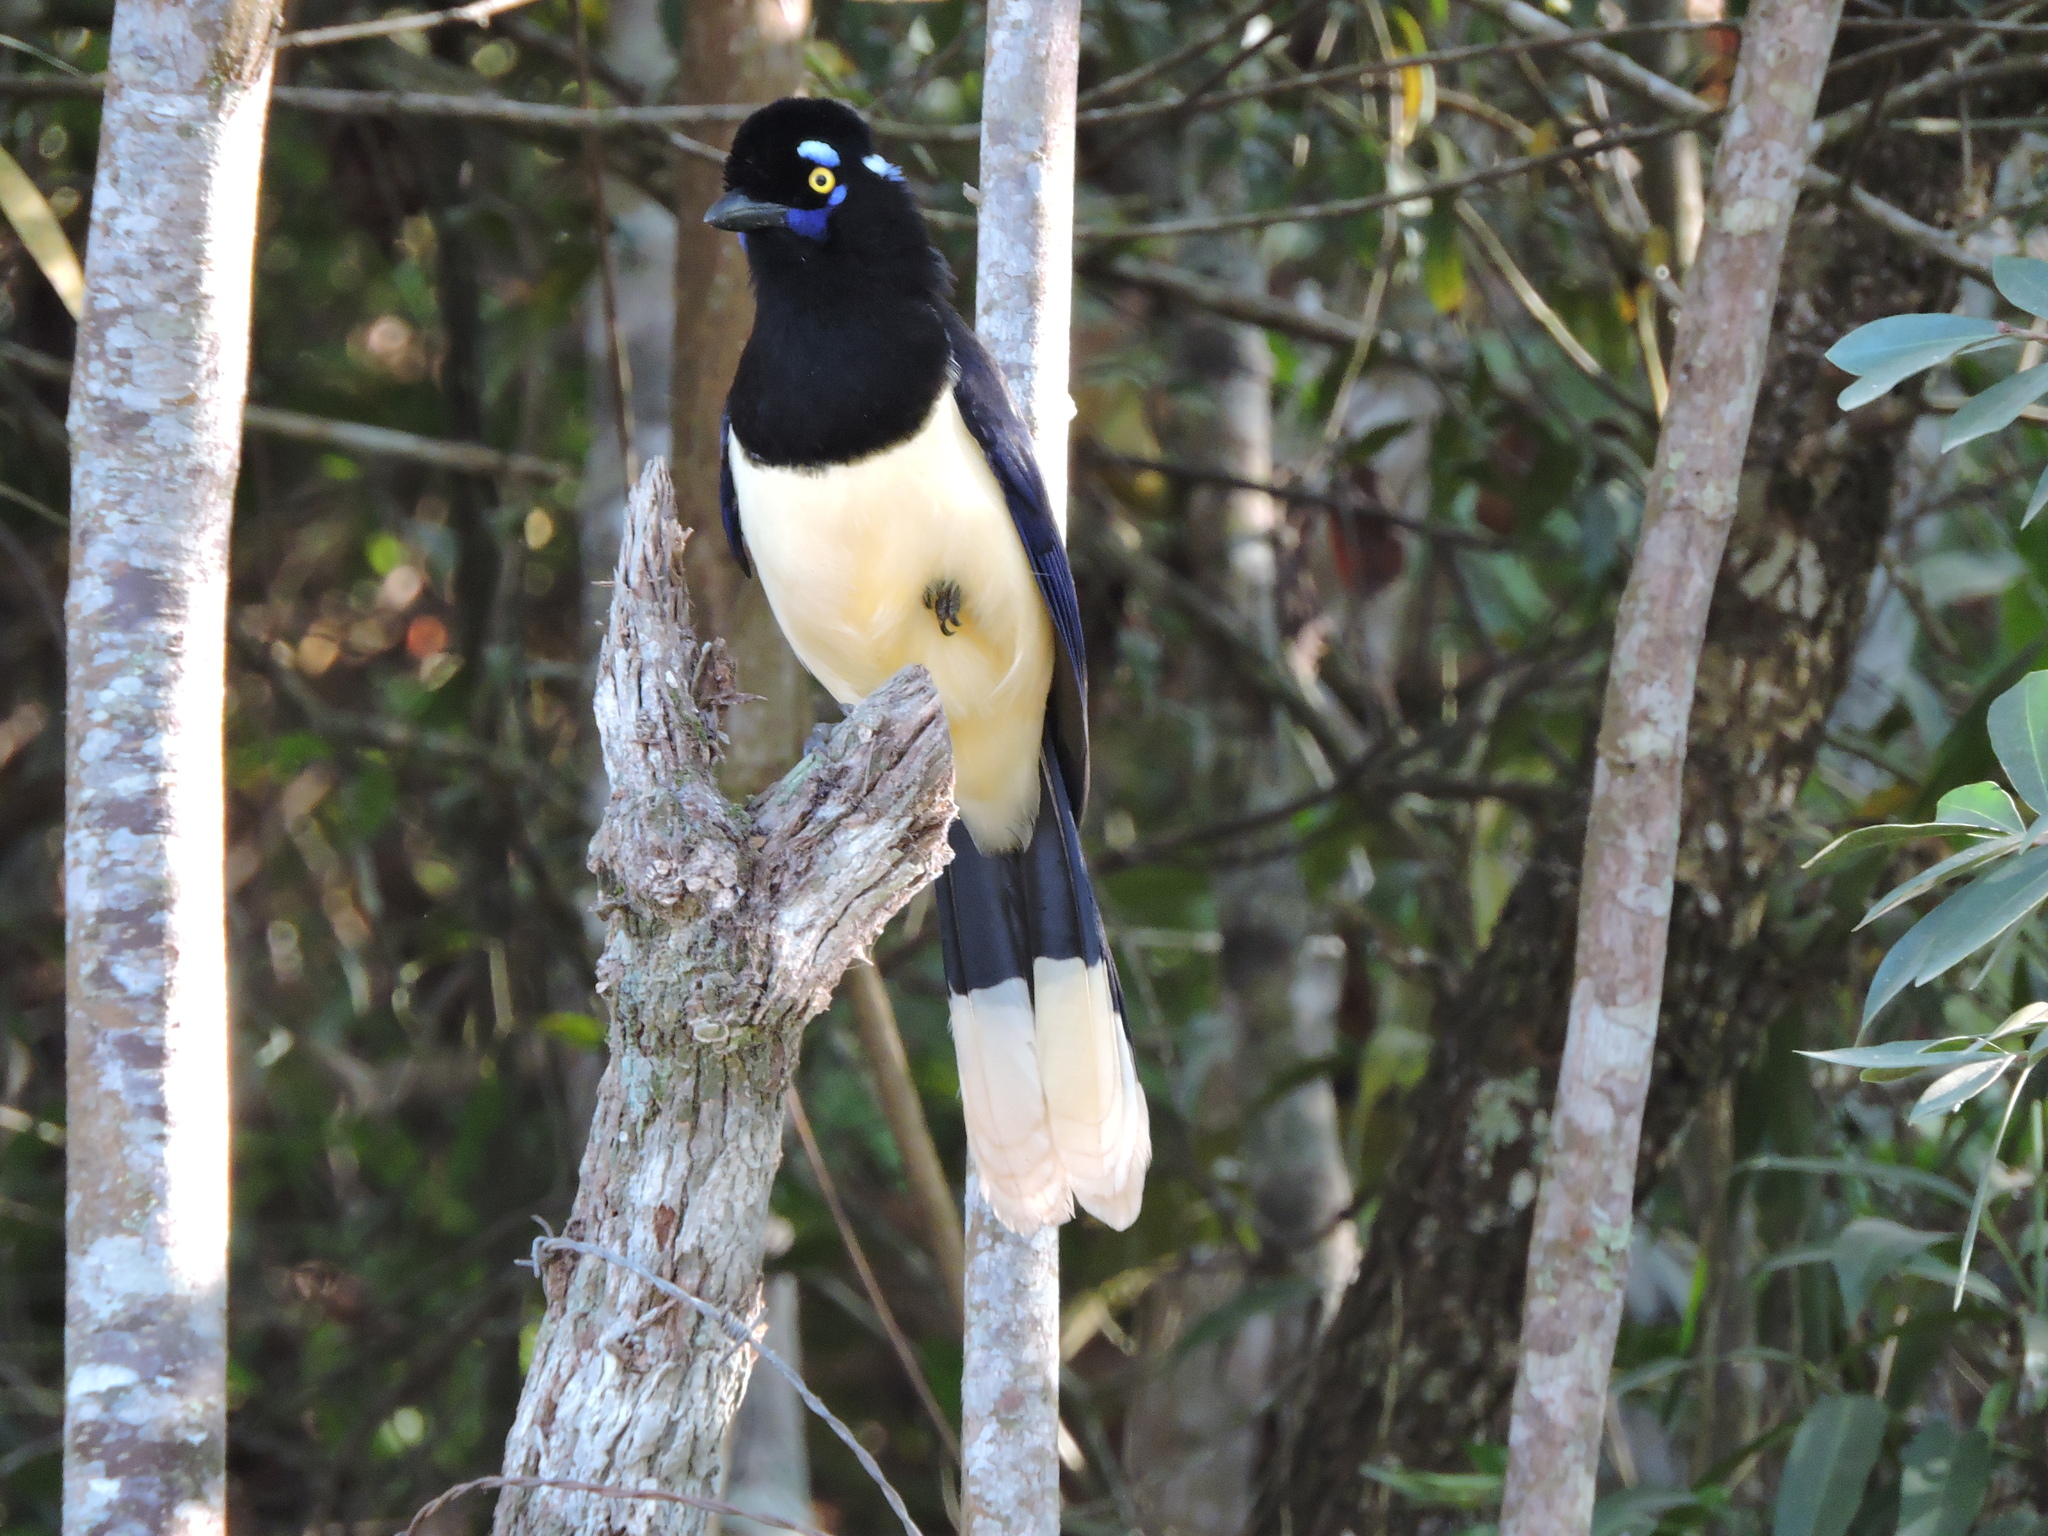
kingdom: Animalia
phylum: Chordata
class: Aves
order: Passeriformes
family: Corvidae
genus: Cyanocorax
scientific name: Cyanocorax chrysops
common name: Plush-crested jay
